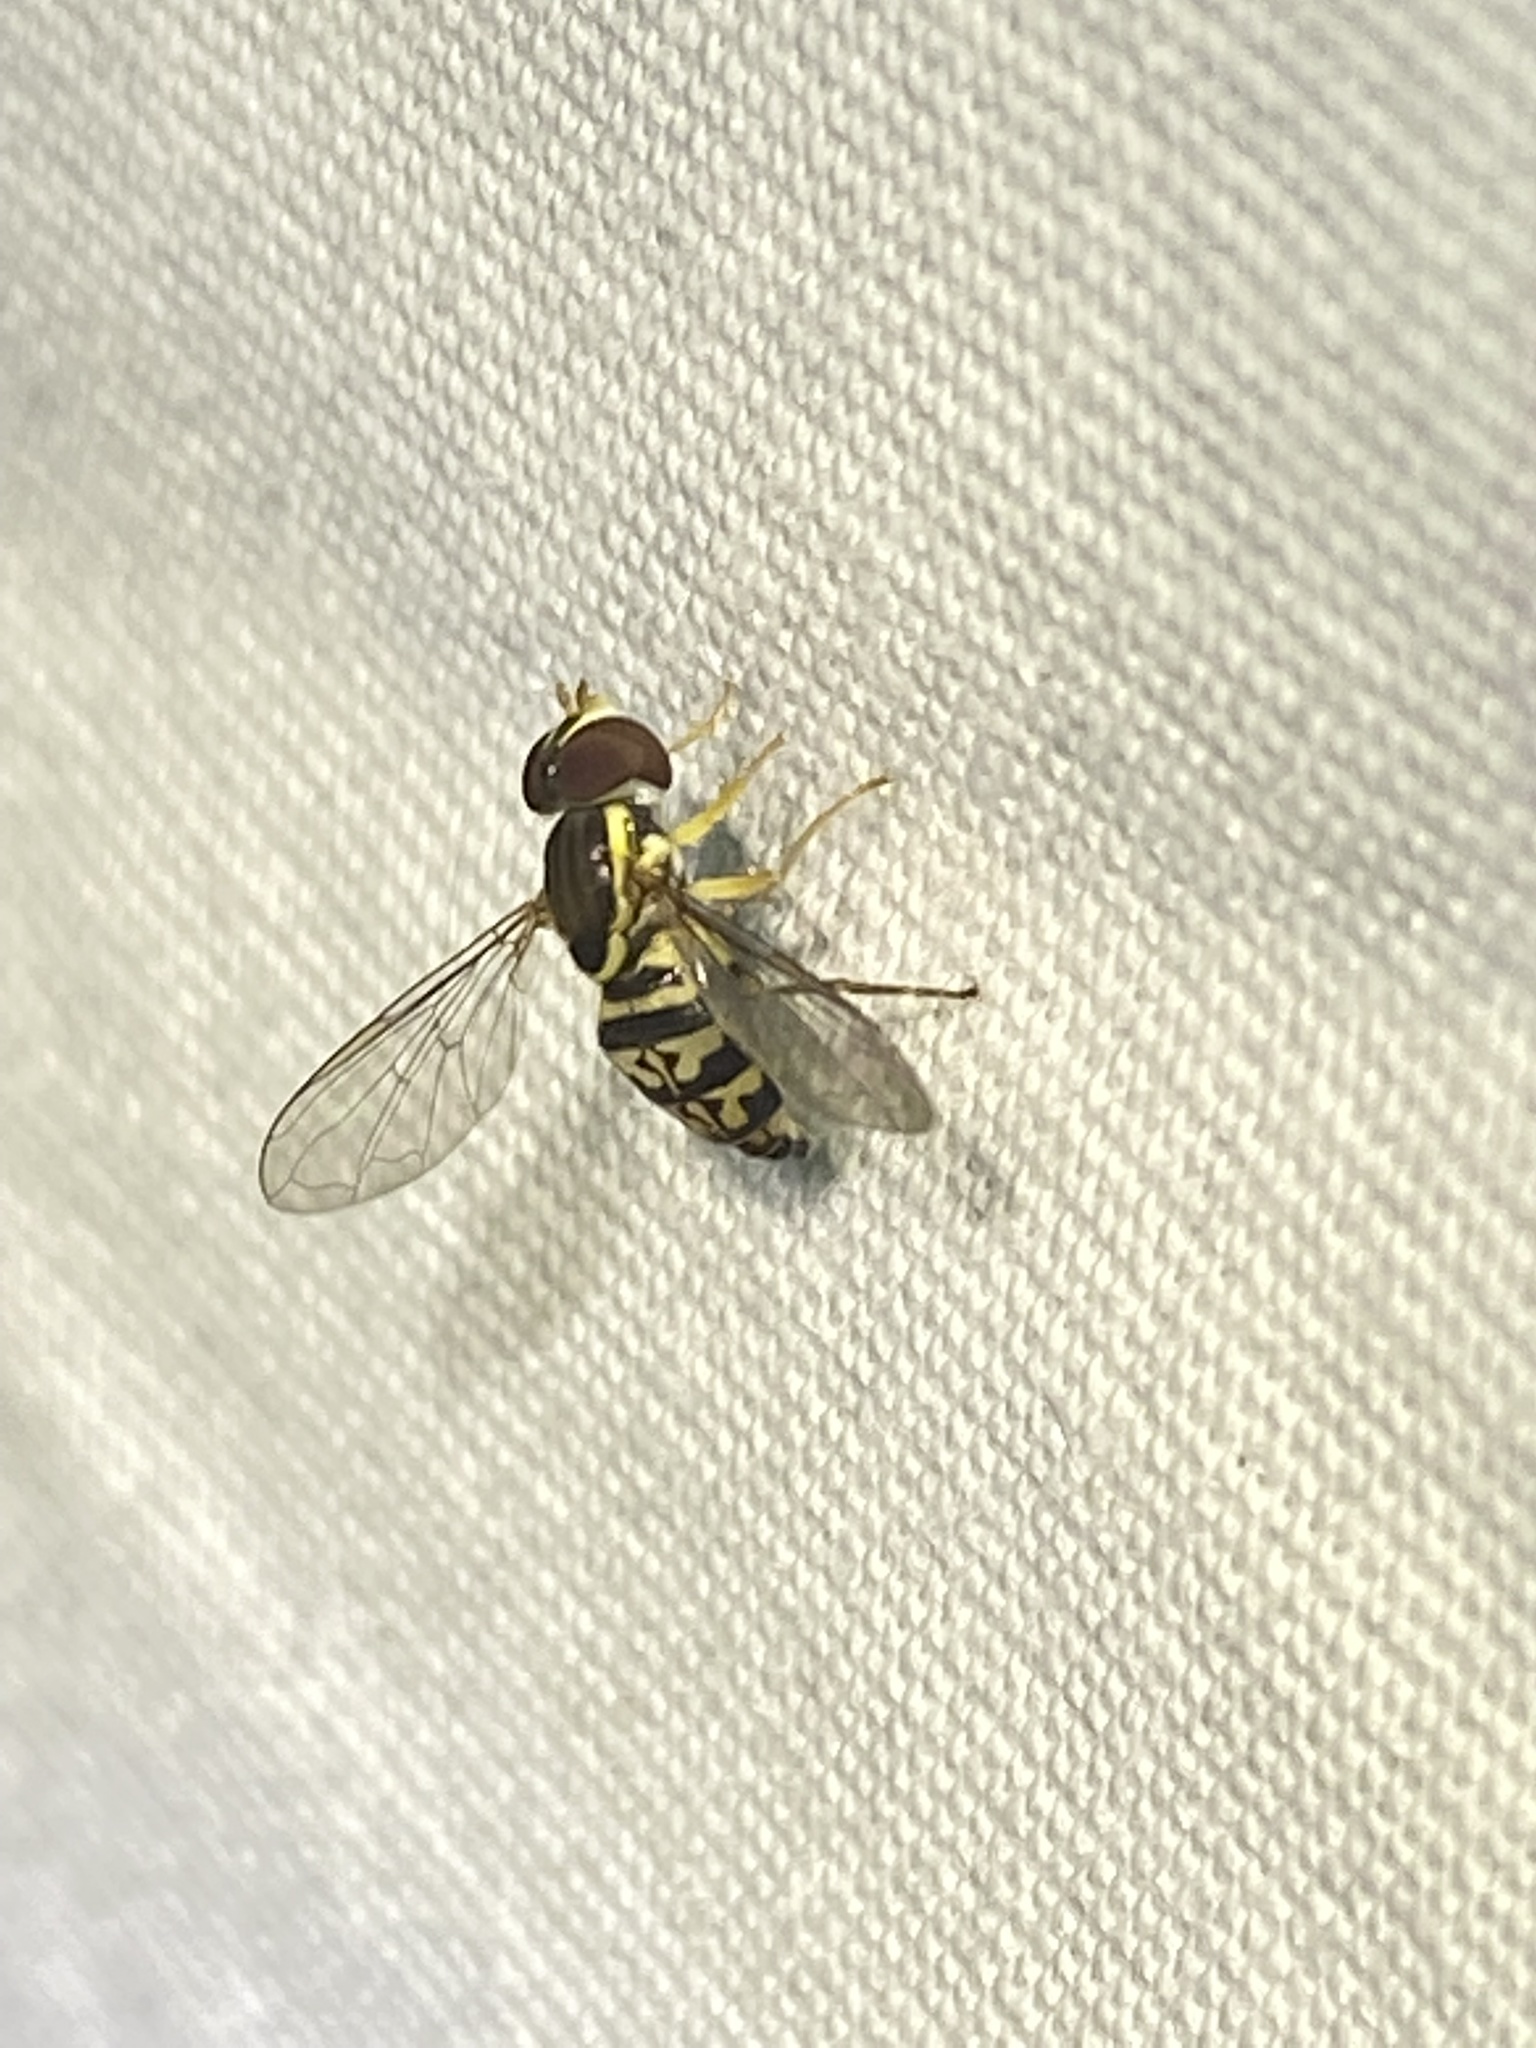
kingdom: Animalia
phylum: Arthropoda
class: Insecta
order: Diptera
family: Syrphidae
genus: Toxomerus
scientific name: Toxomerus geminatus
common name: Eastern calligrapher
